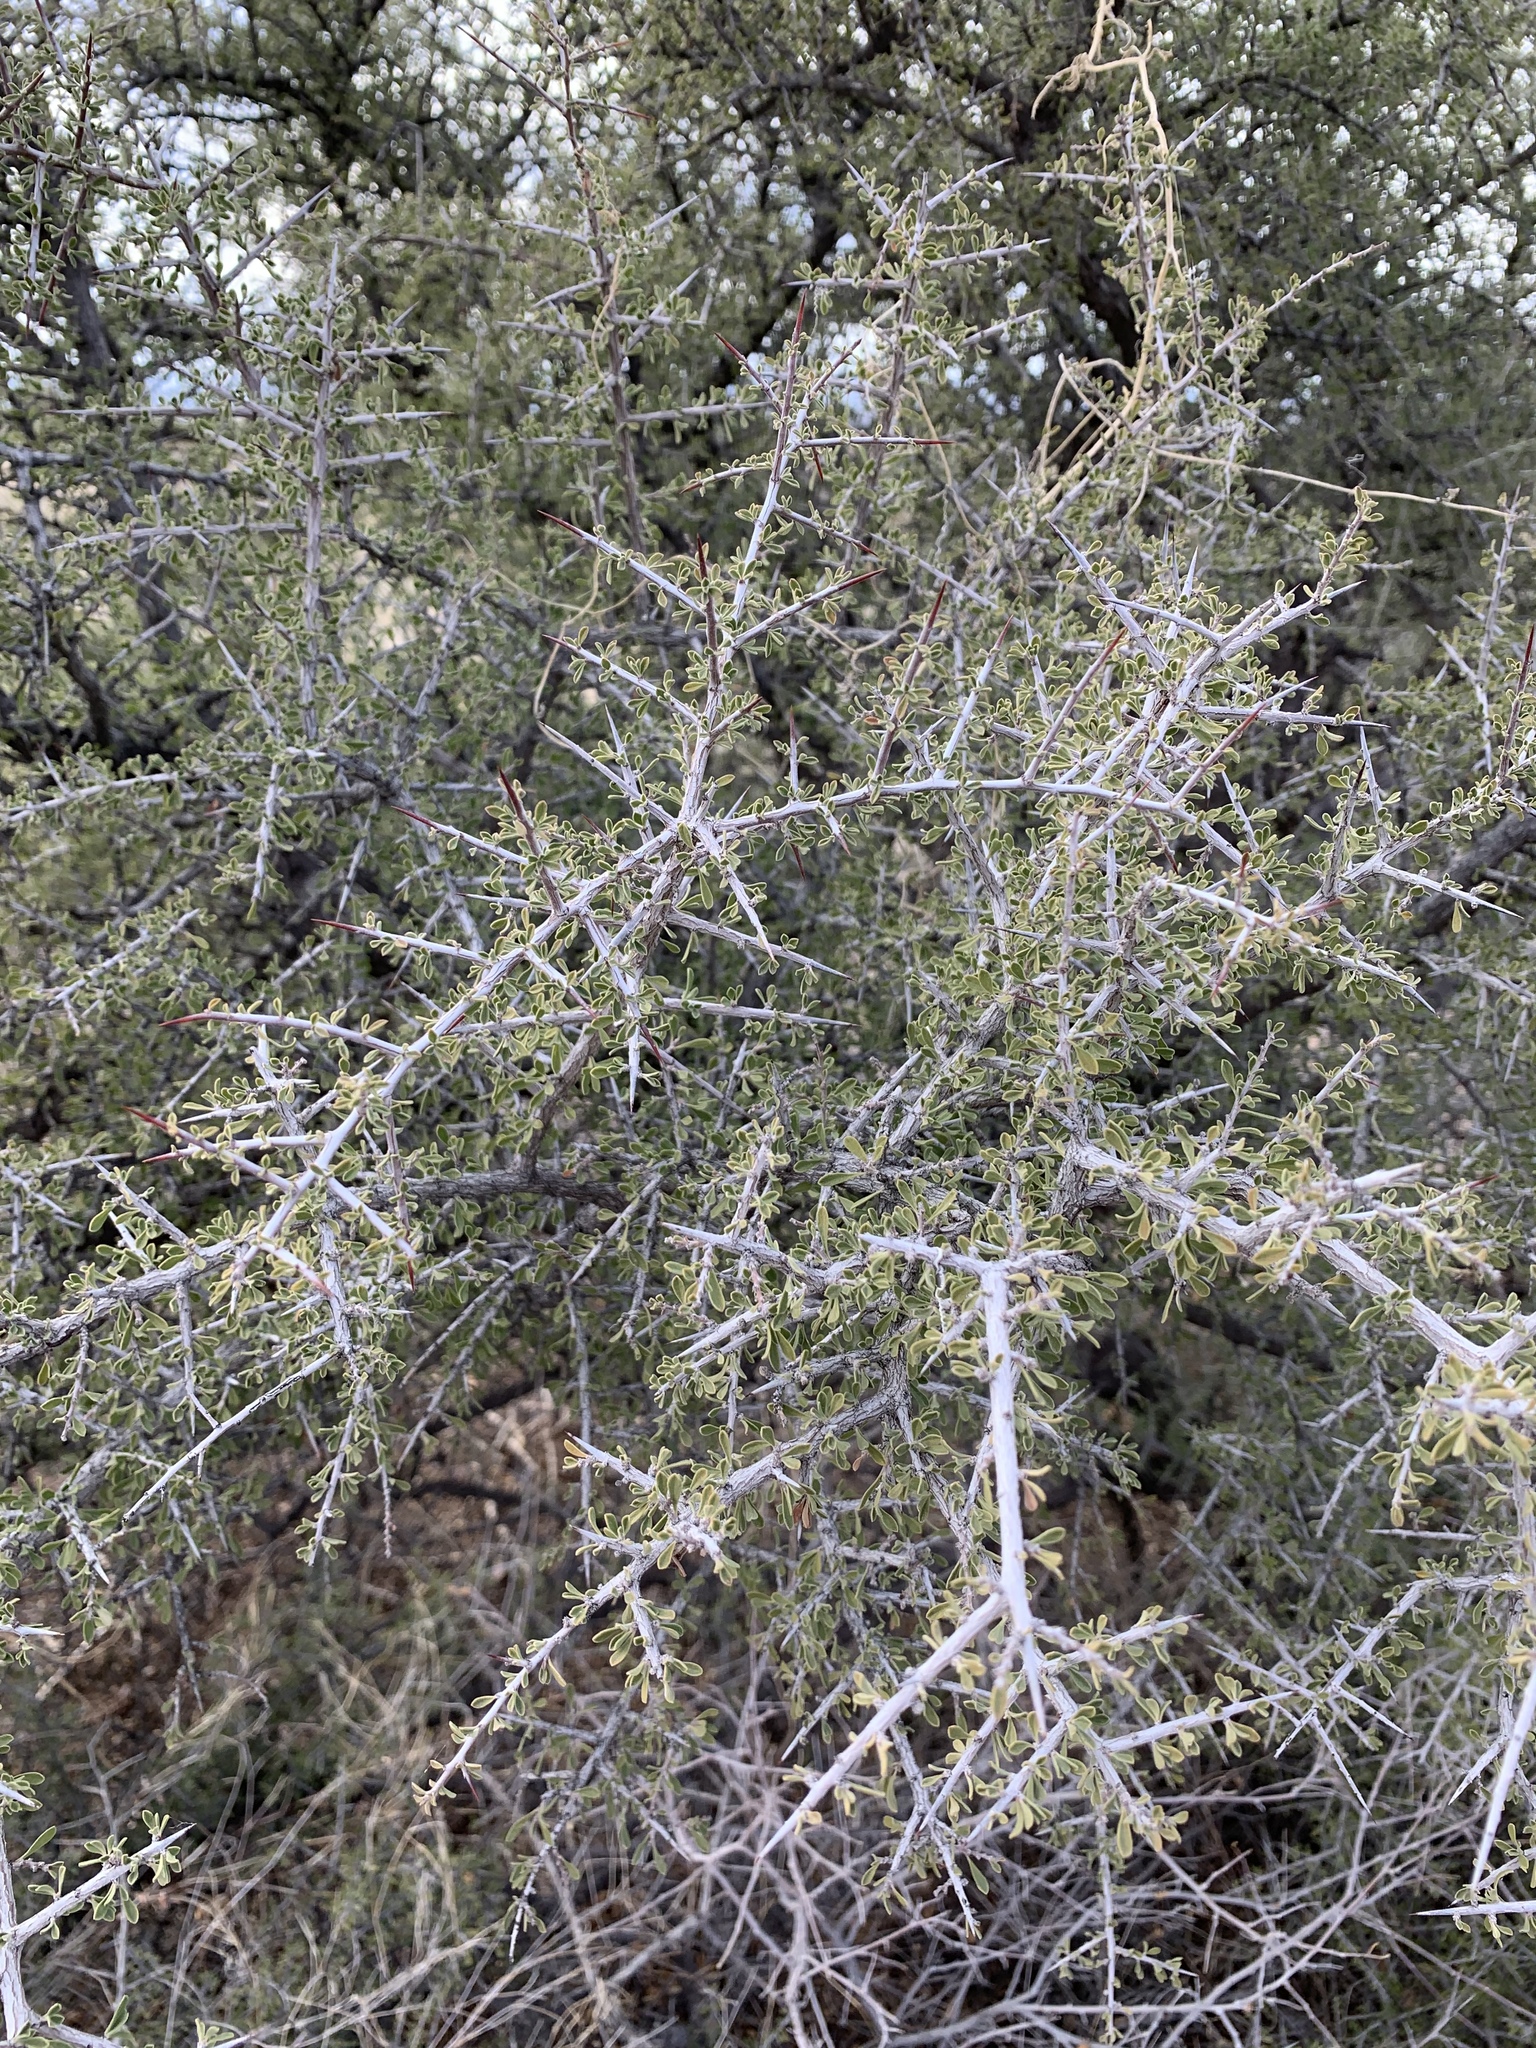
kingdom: Plantae
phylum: Tracheophyta
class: Magnoliopsida
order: Rosales
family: Rhamnaceae
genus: Condalia
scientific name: Condalia warnockii
